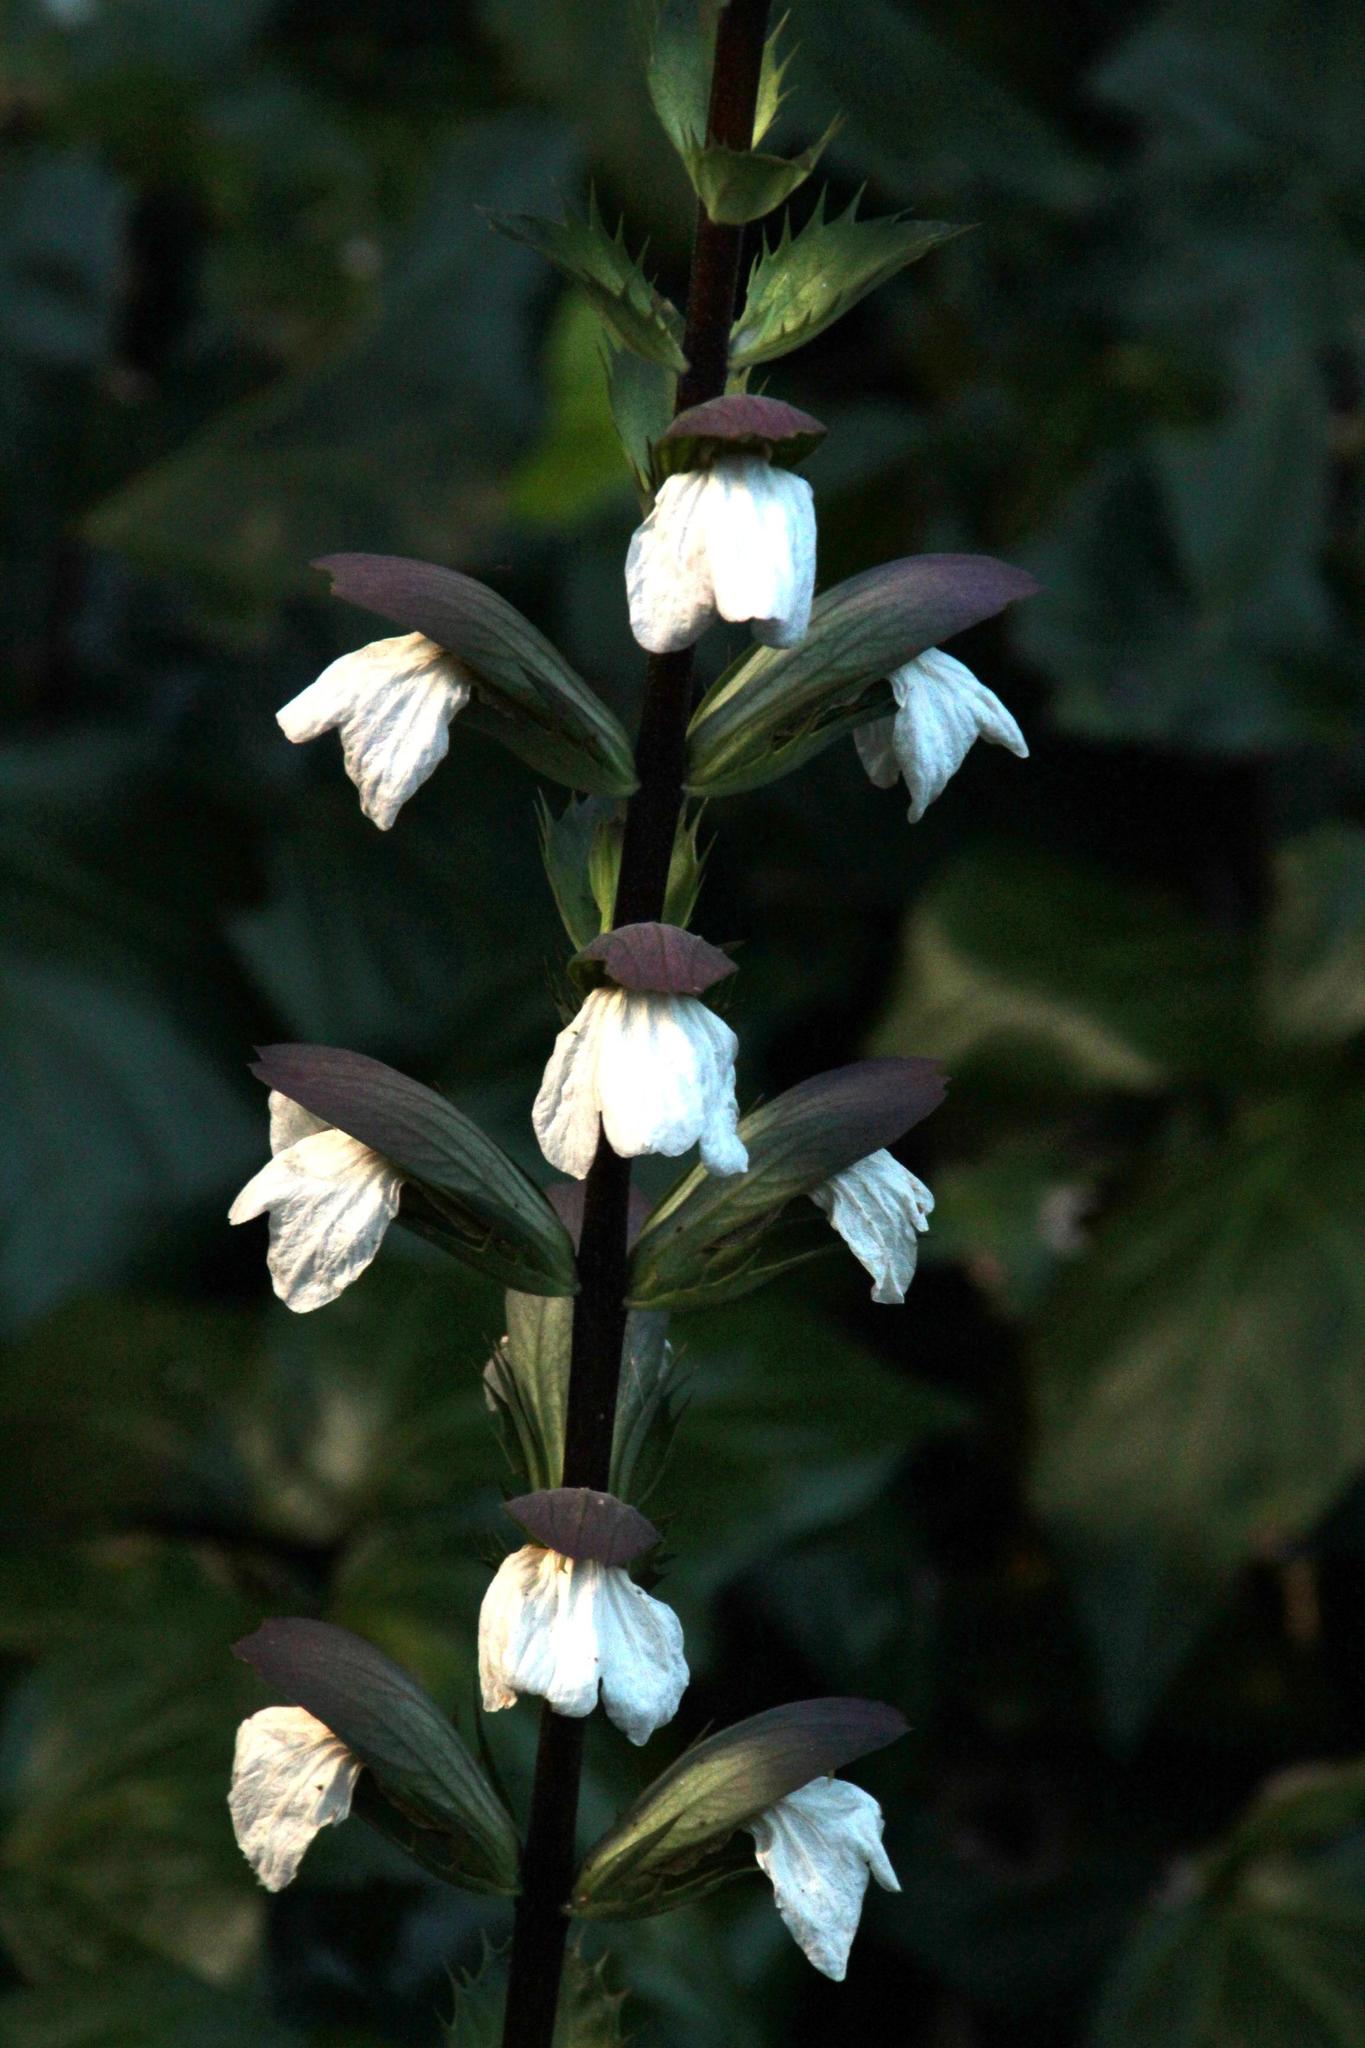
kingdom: Plantae
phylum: Tracheophyta
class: Magnoliopsida
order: Lamiales
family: Acanthaceae
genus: Acanthus
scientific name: Acanthus mollis
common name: Bear's-breech
